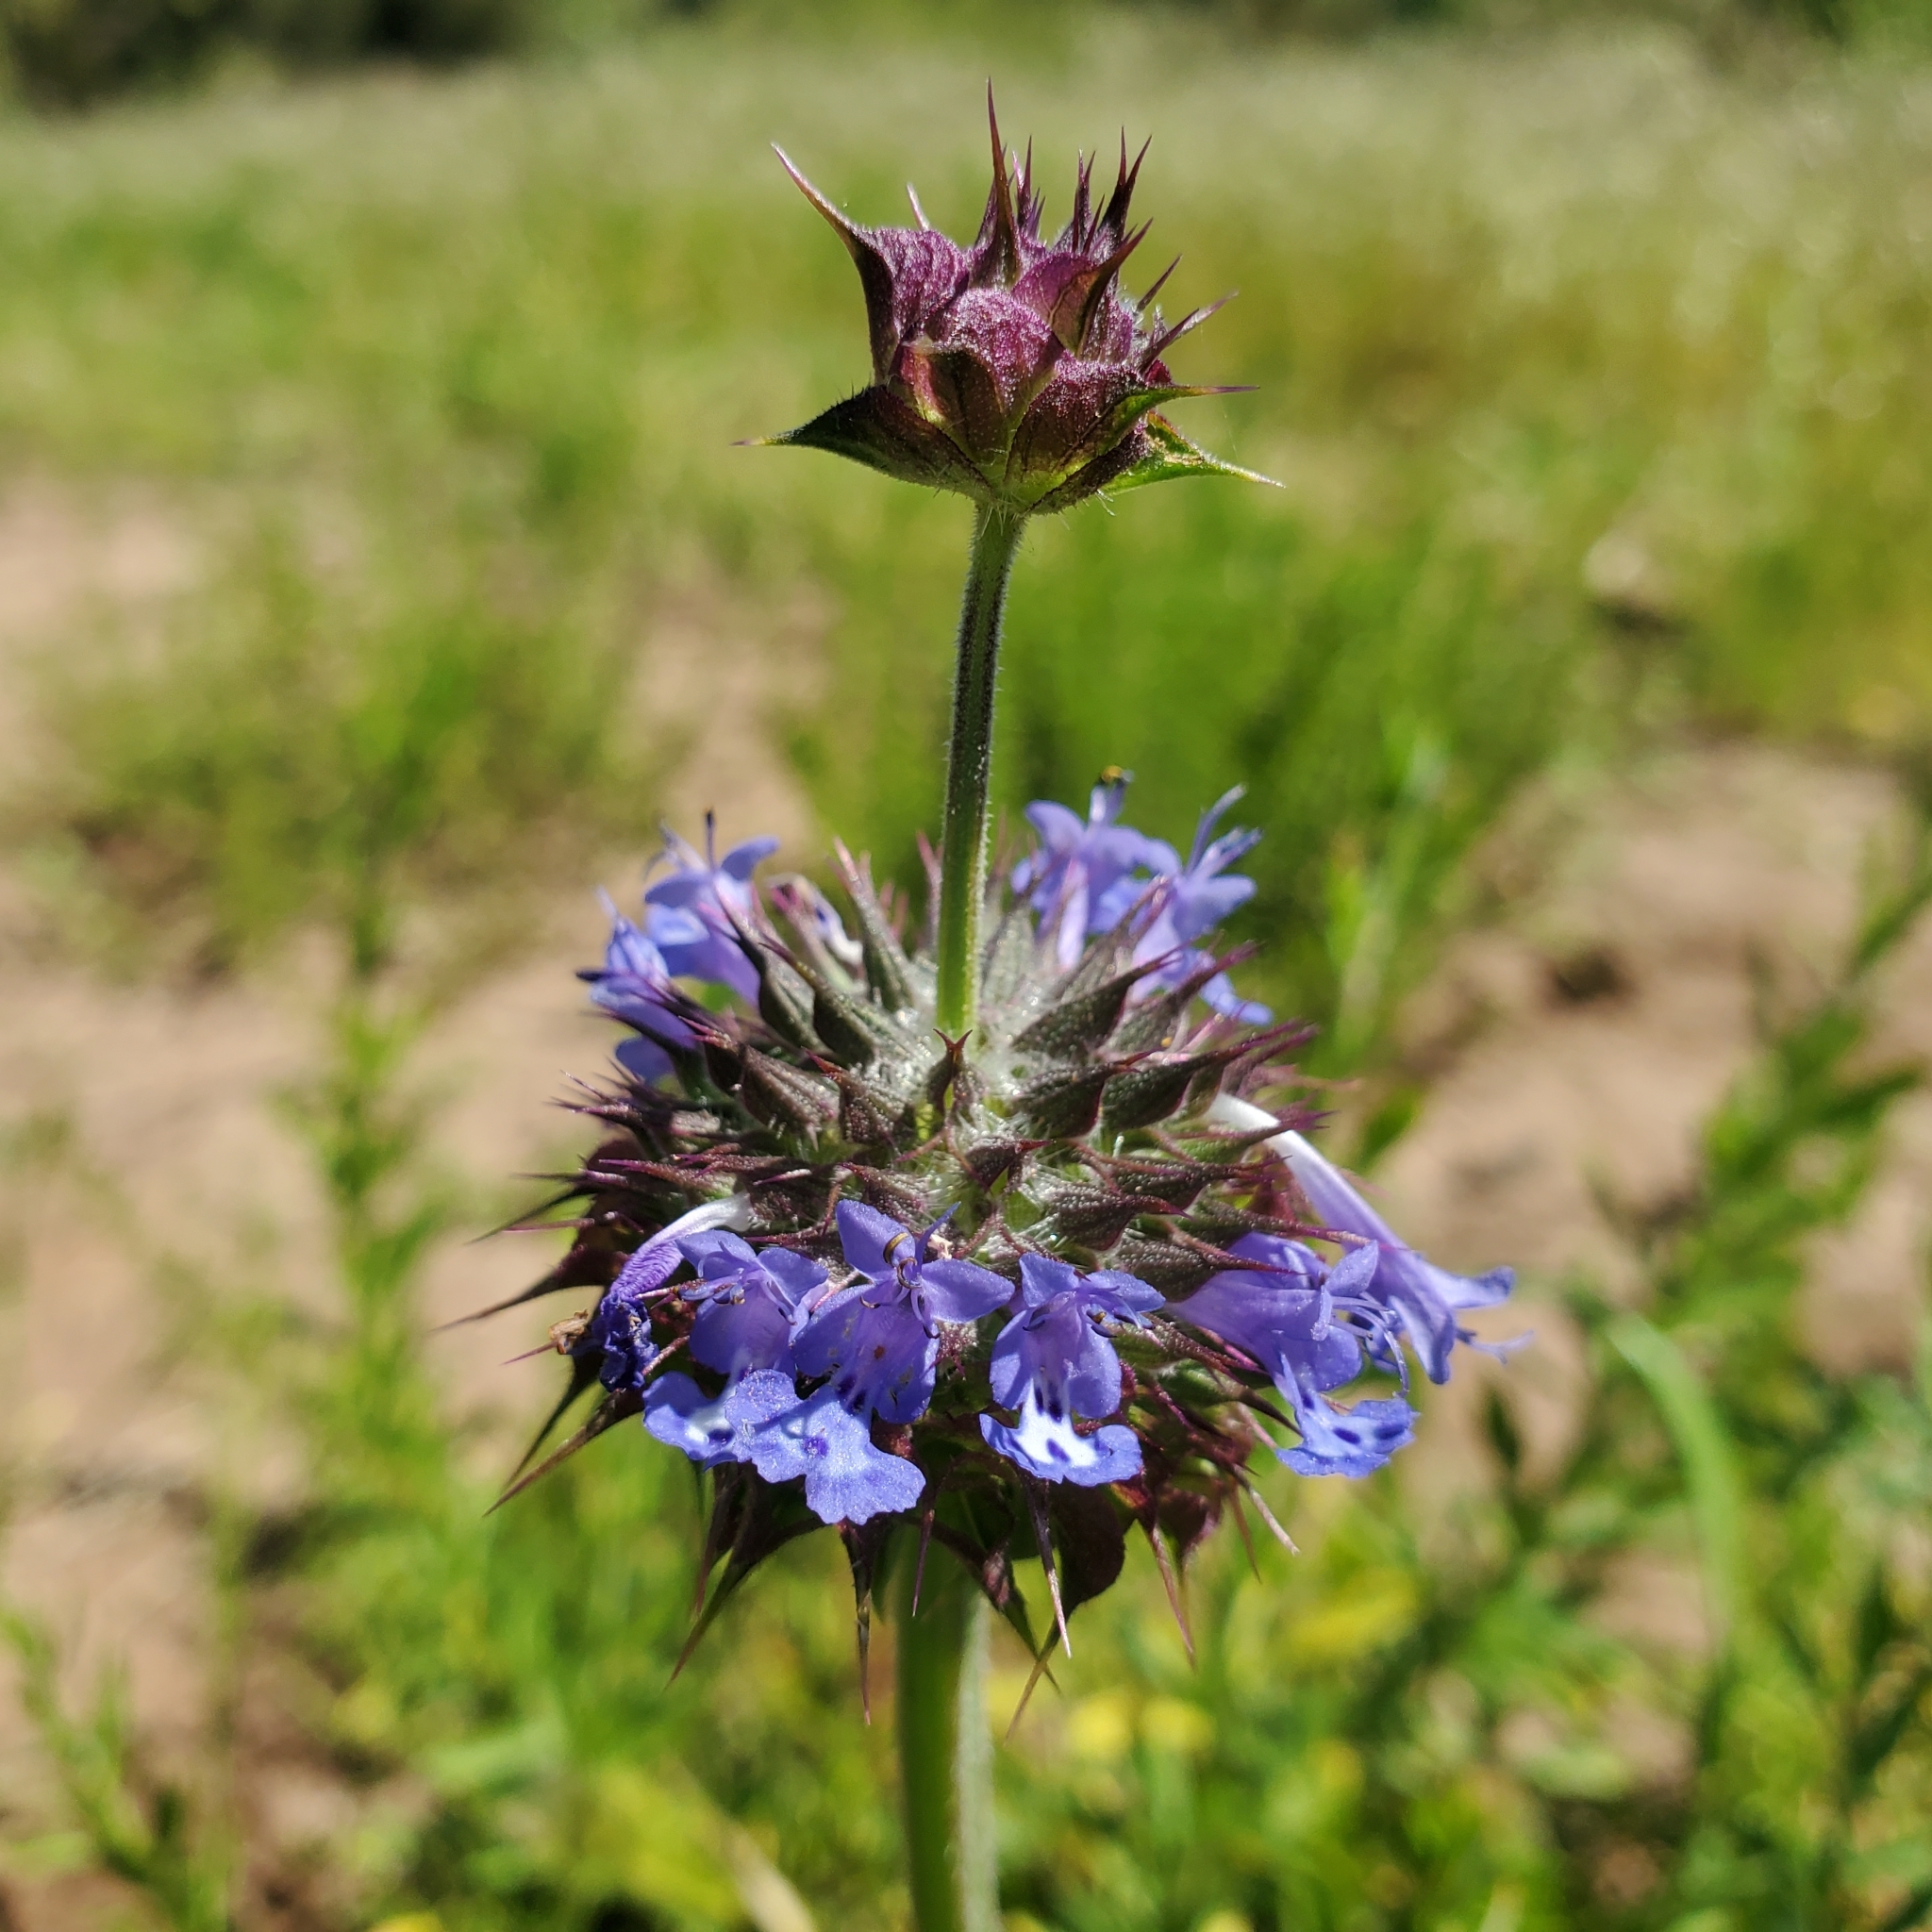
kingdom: Plantae
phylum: Tracheophyta
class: Magnoliopsida
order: Lamiales
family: Lamiaceae
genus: Salvia
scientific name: Salvia columbariae
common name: Chia
